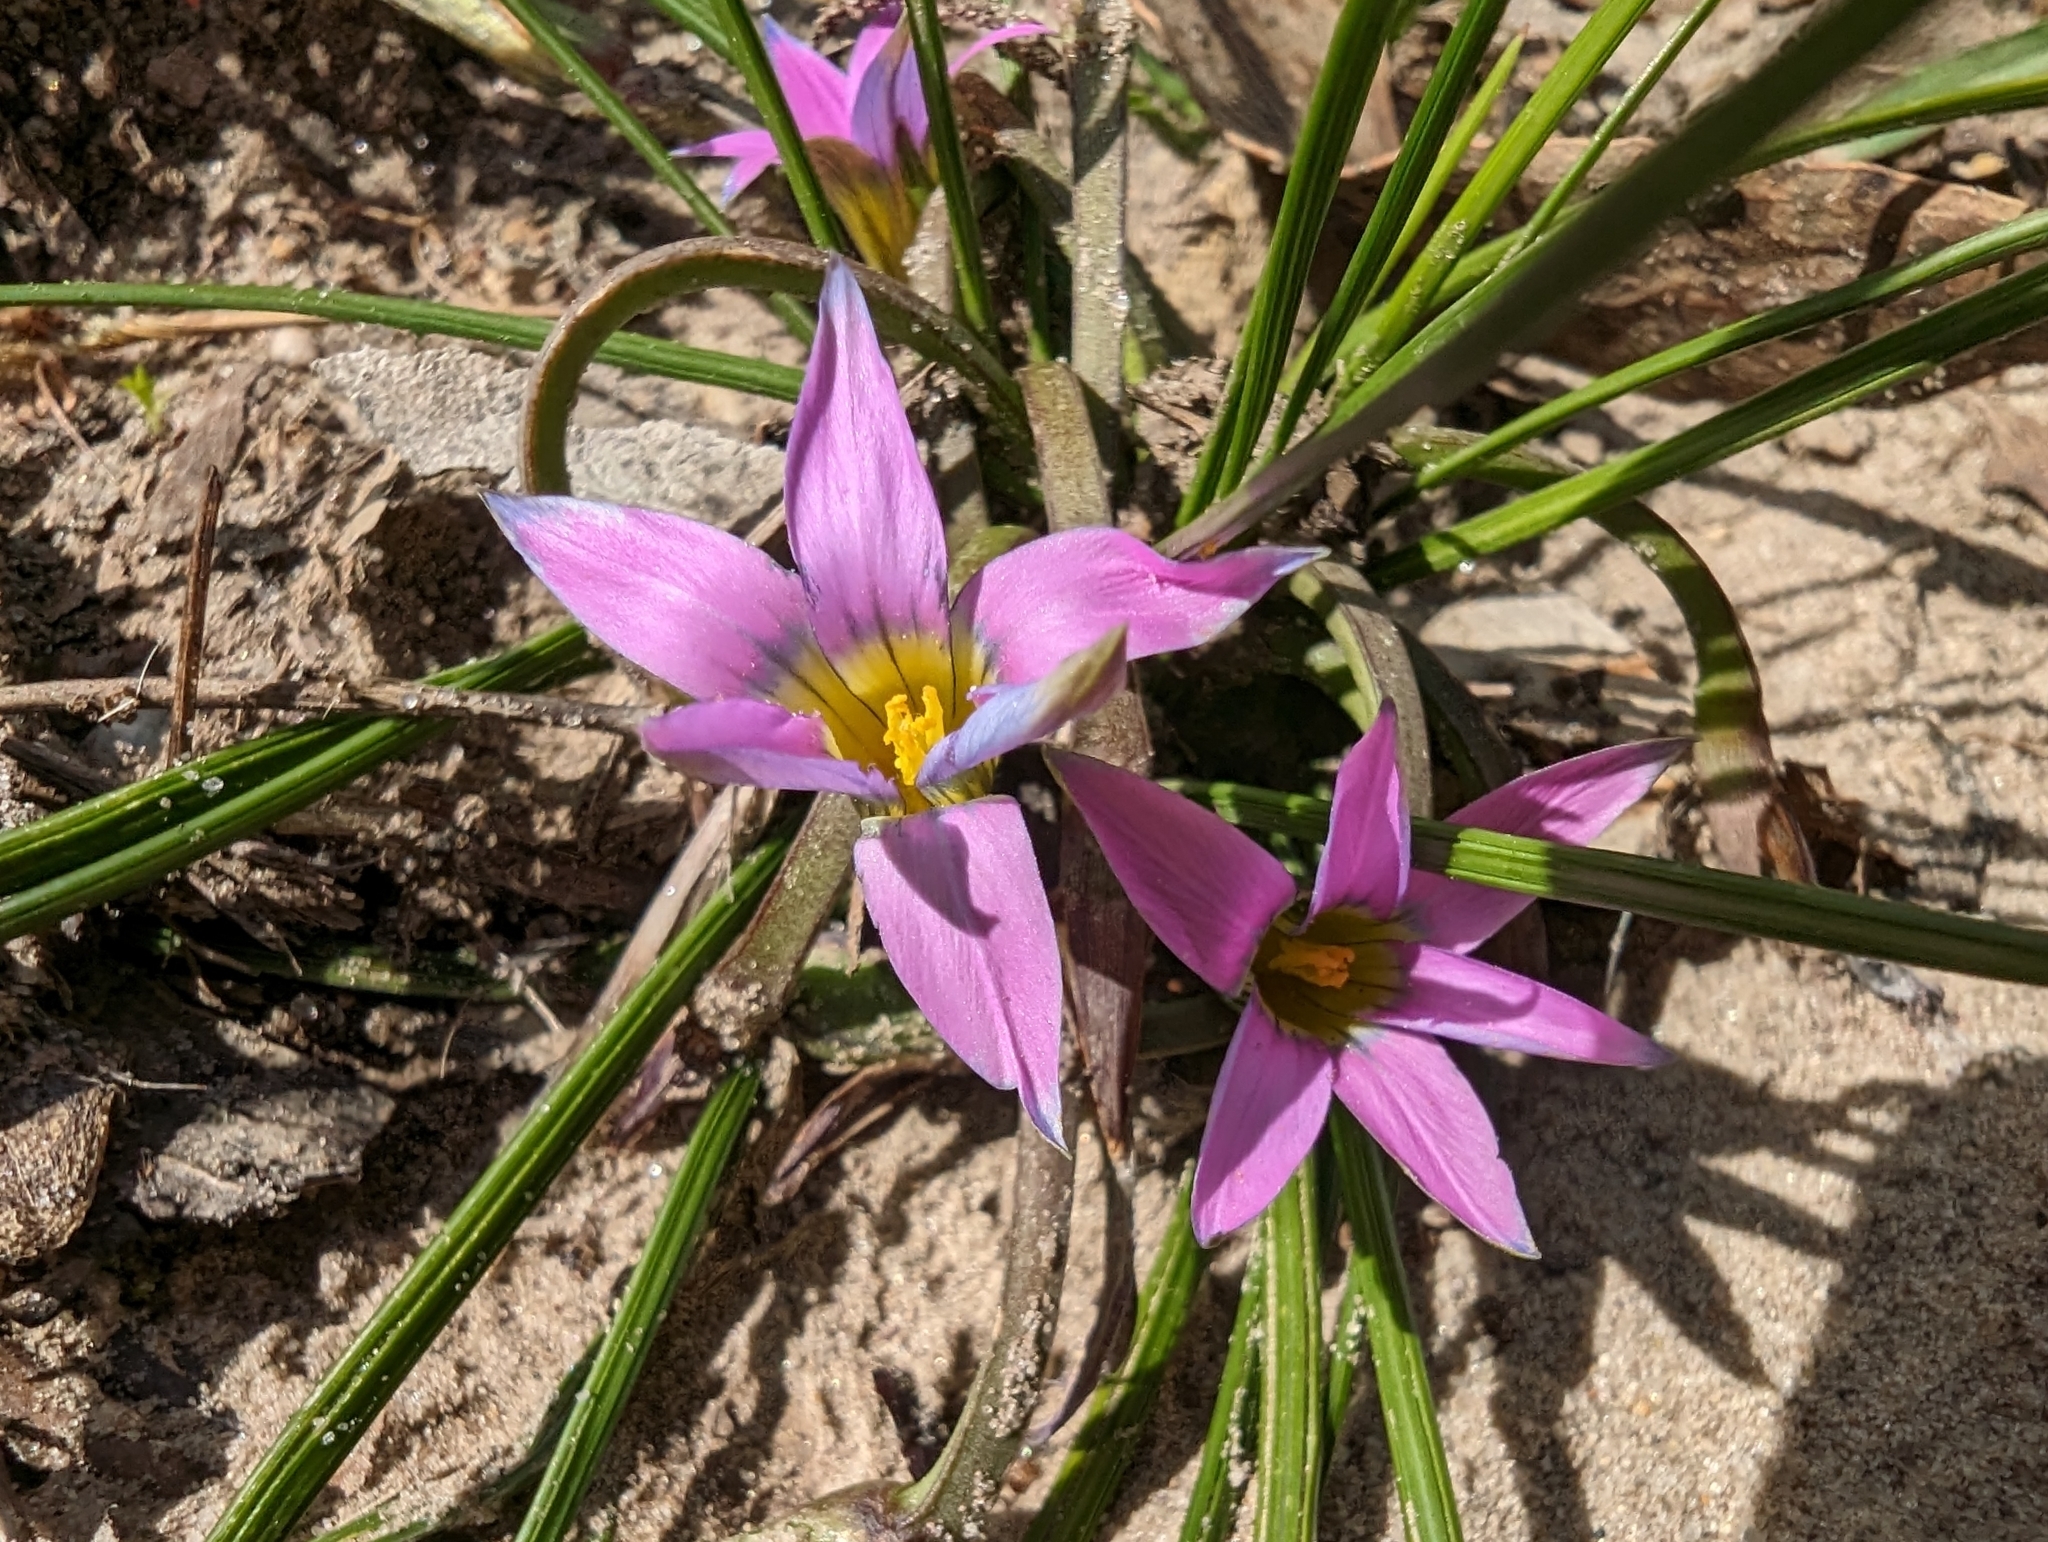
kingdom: Plantae
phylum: Tracheophyta
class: Liliopsida
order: Asparagales
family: Iridaceae
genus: Romulea
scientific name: Romulea rosea
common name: Oniongrass
